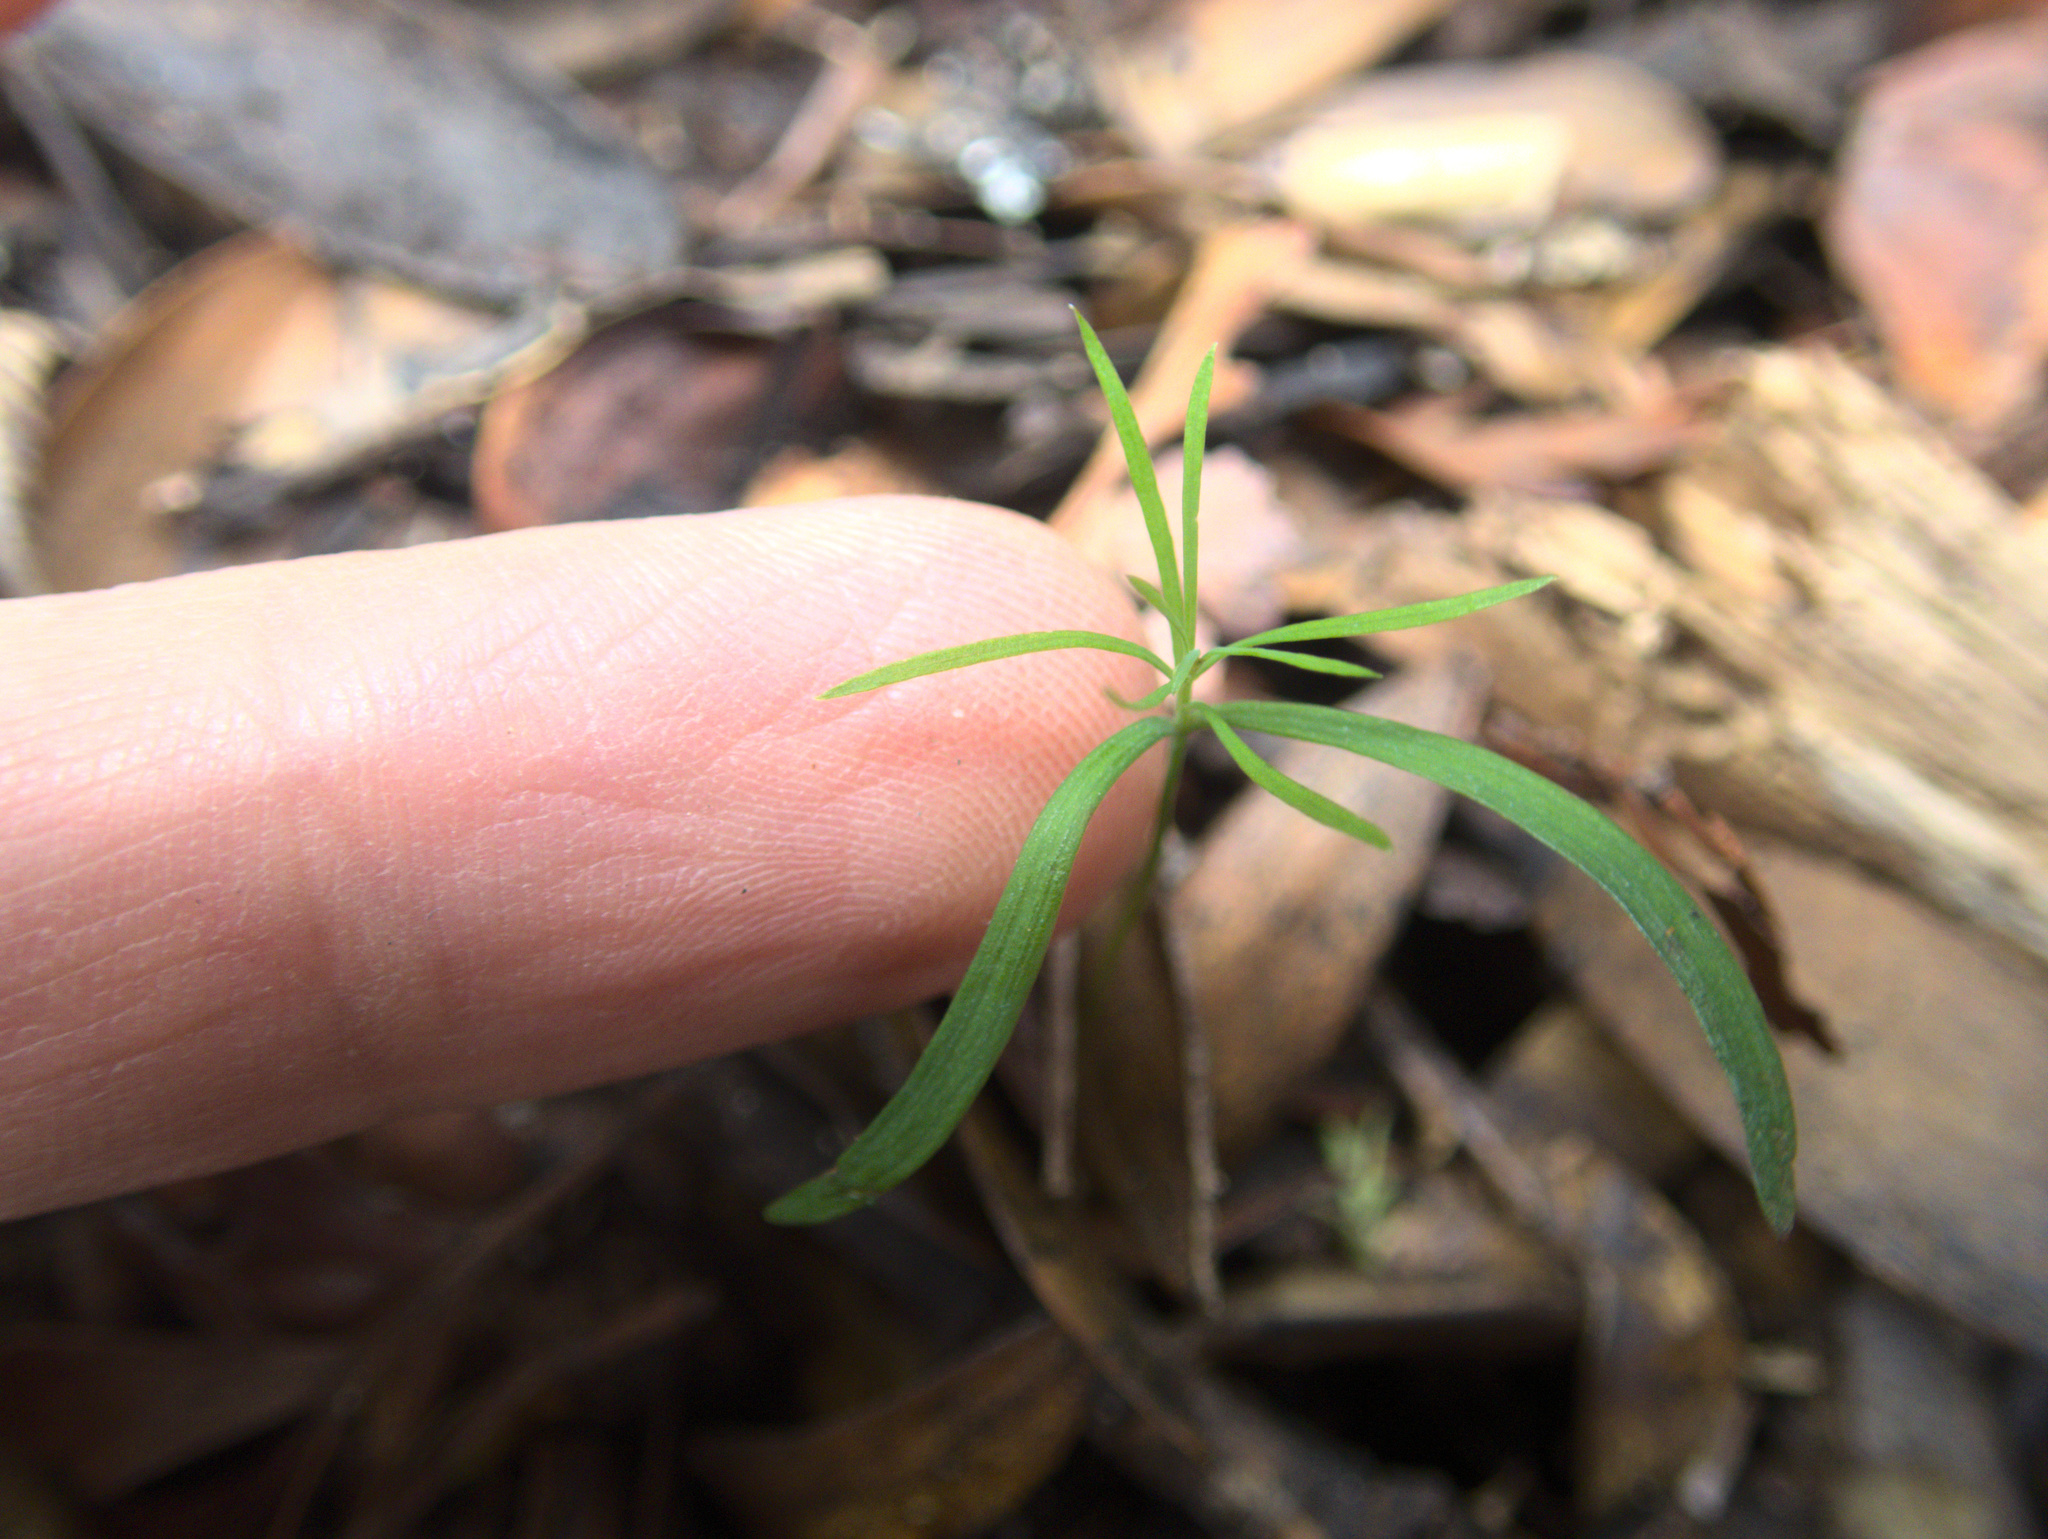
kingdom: Plantae
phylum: Tracheophyta
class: Pinopsida
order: Pinales
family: Phyllocladaceae
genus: Phyllocladus
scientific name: Phyllocladus trichomanoides
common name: Celery pine
